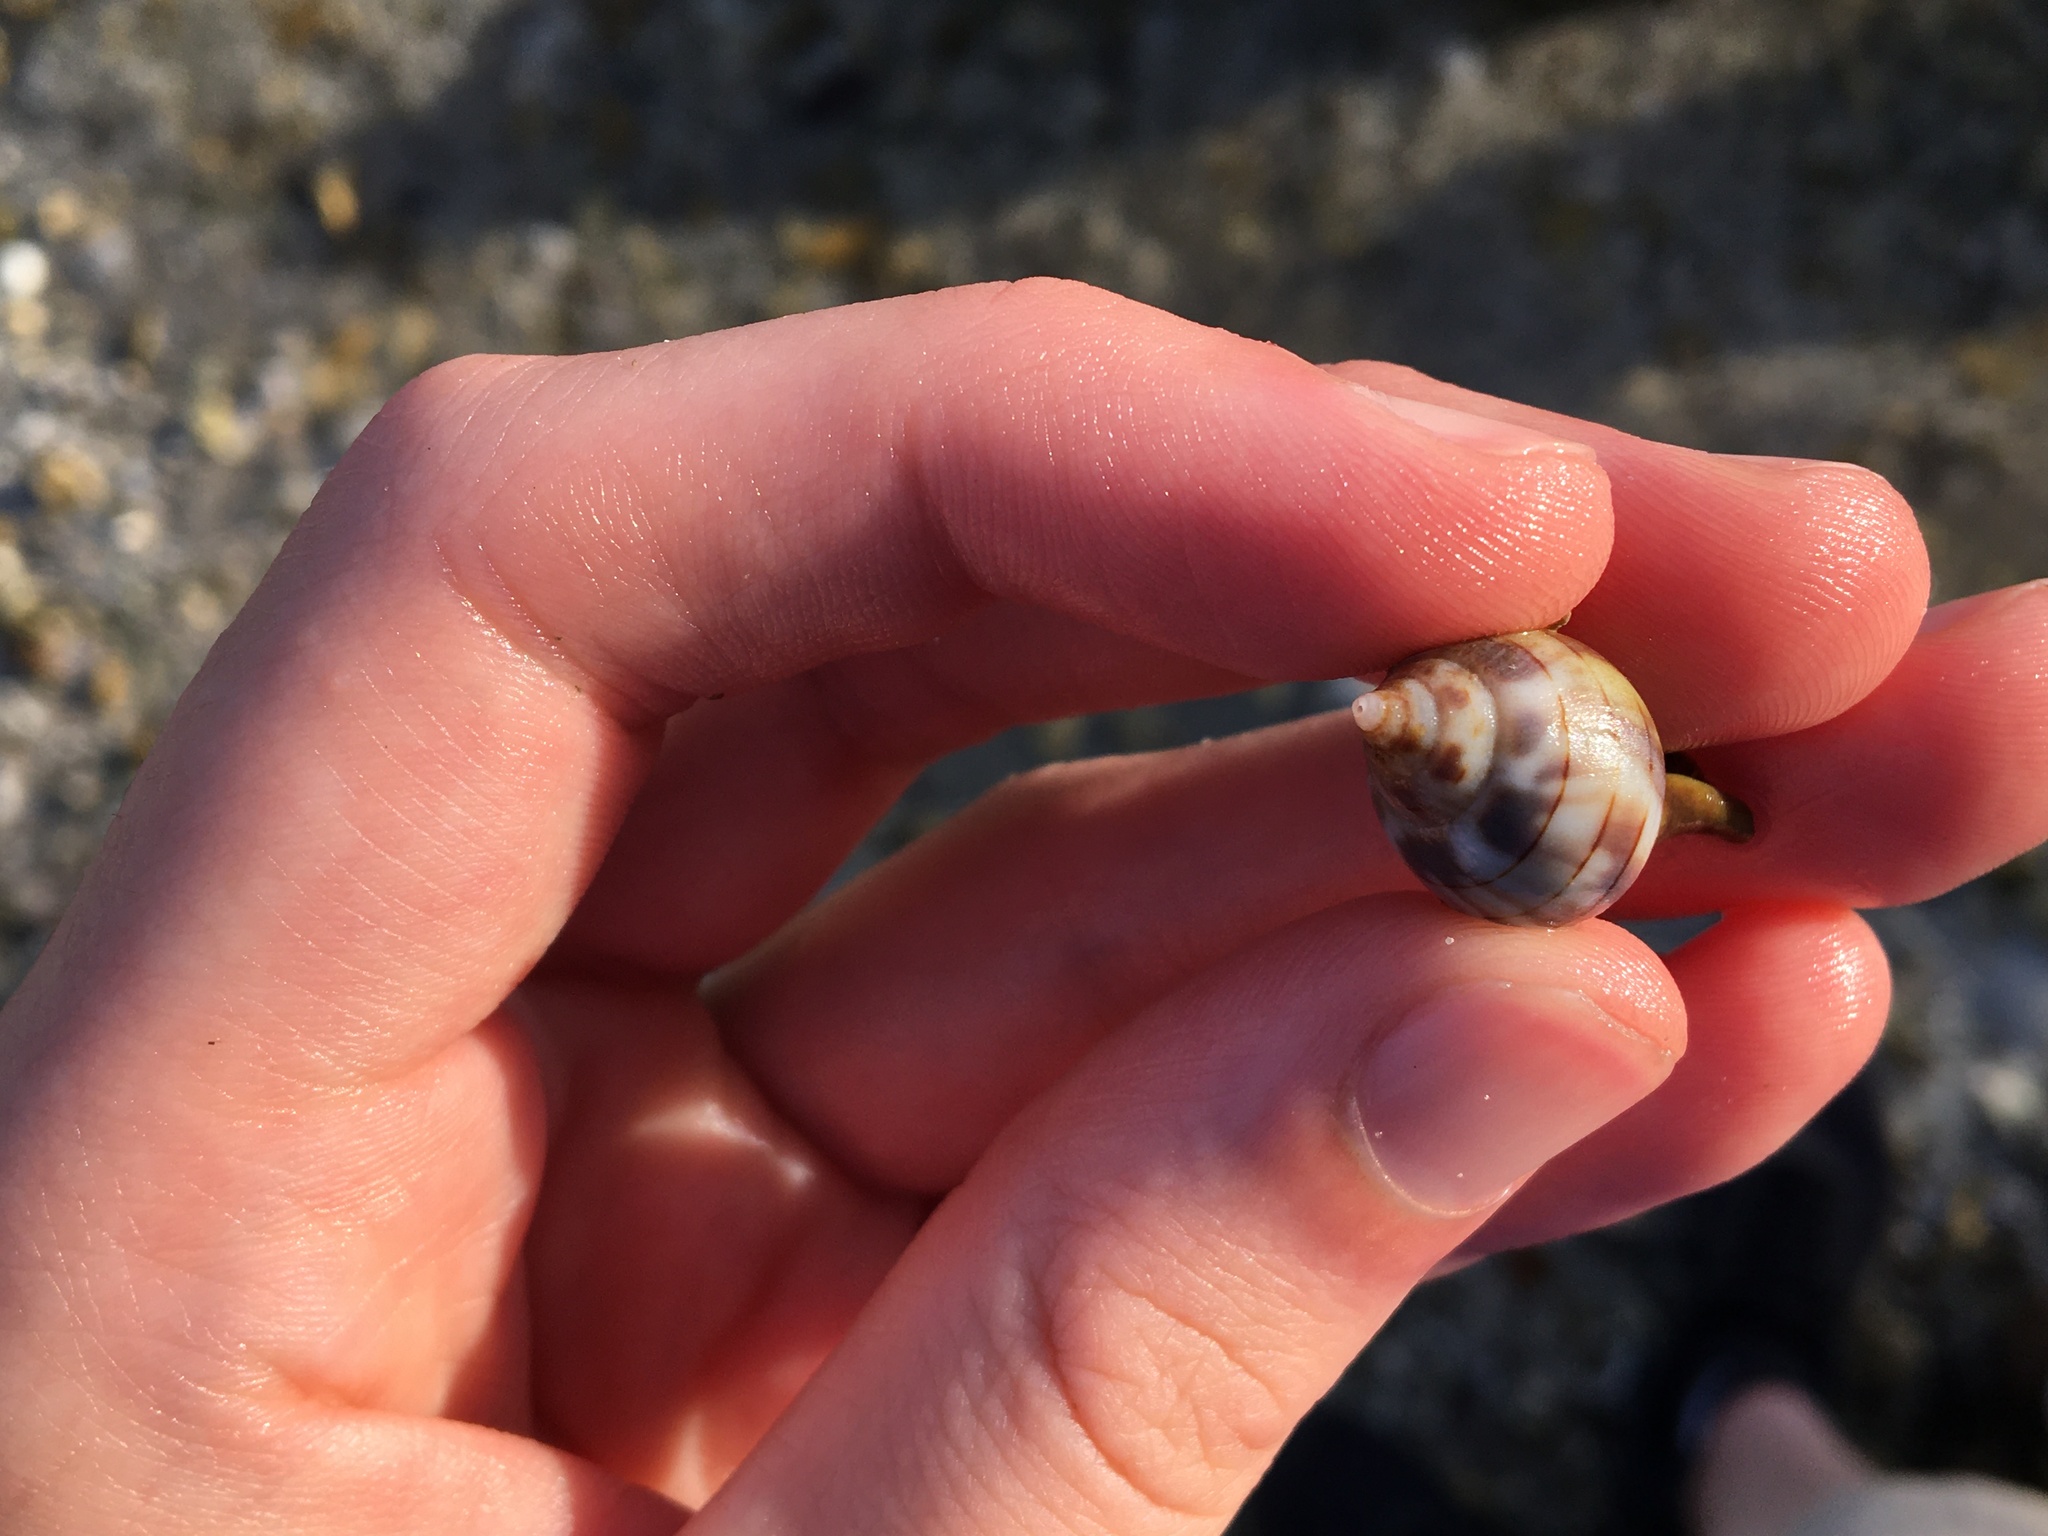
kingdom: Animalia
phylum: Mollusca
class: Gastropoda
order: Neogastropoda
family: Fasciolariidae
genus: Cinctura
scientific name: Cinctura hunteria
